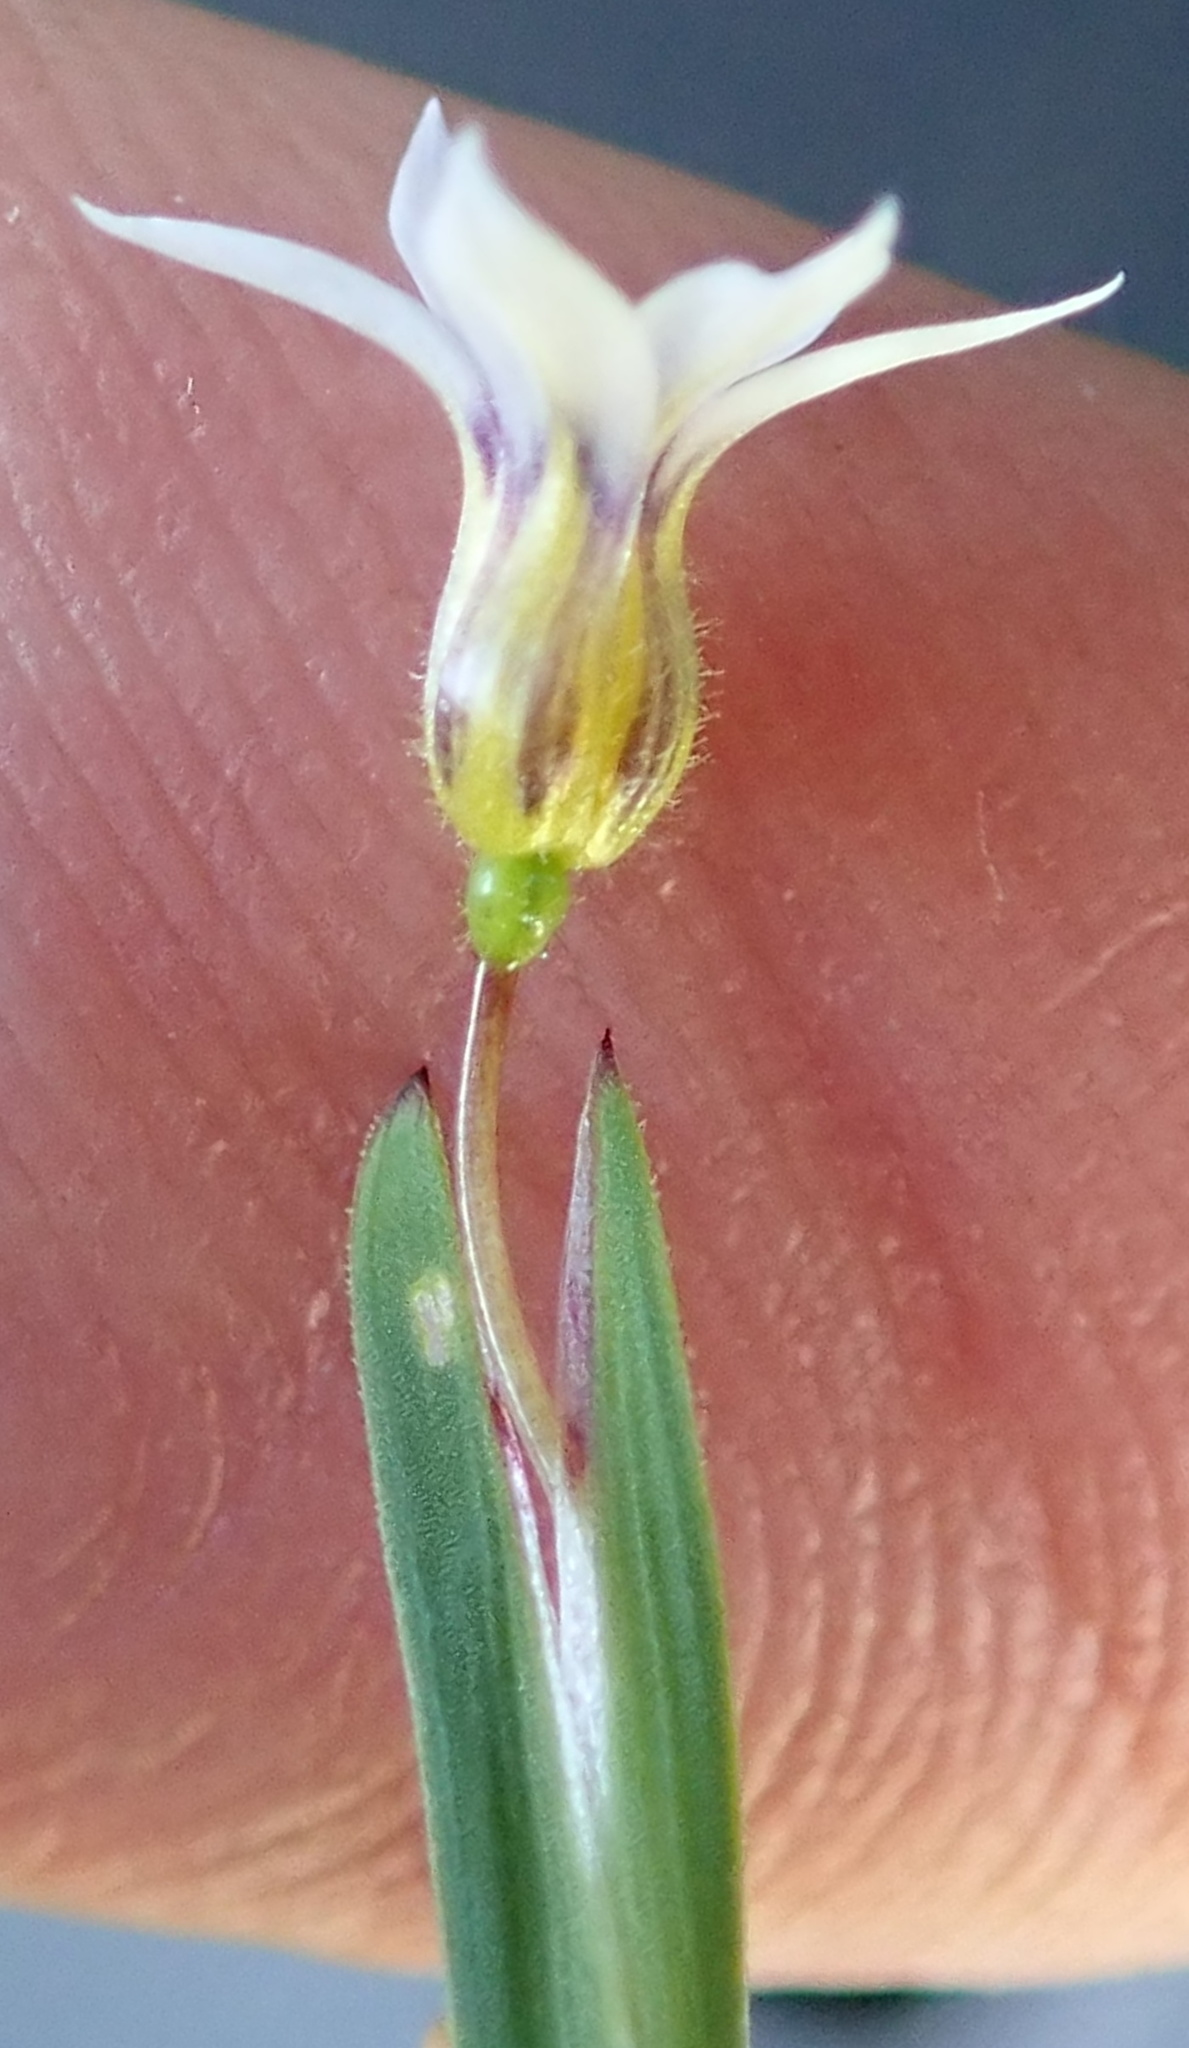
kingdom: Plantae
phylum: Tracheophyta
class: Liliopsida
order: Asparagales
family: Iridaceae
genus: Sisyrinchium
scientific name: Sisyrinchium micranthum
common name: Bermuda pigroot
